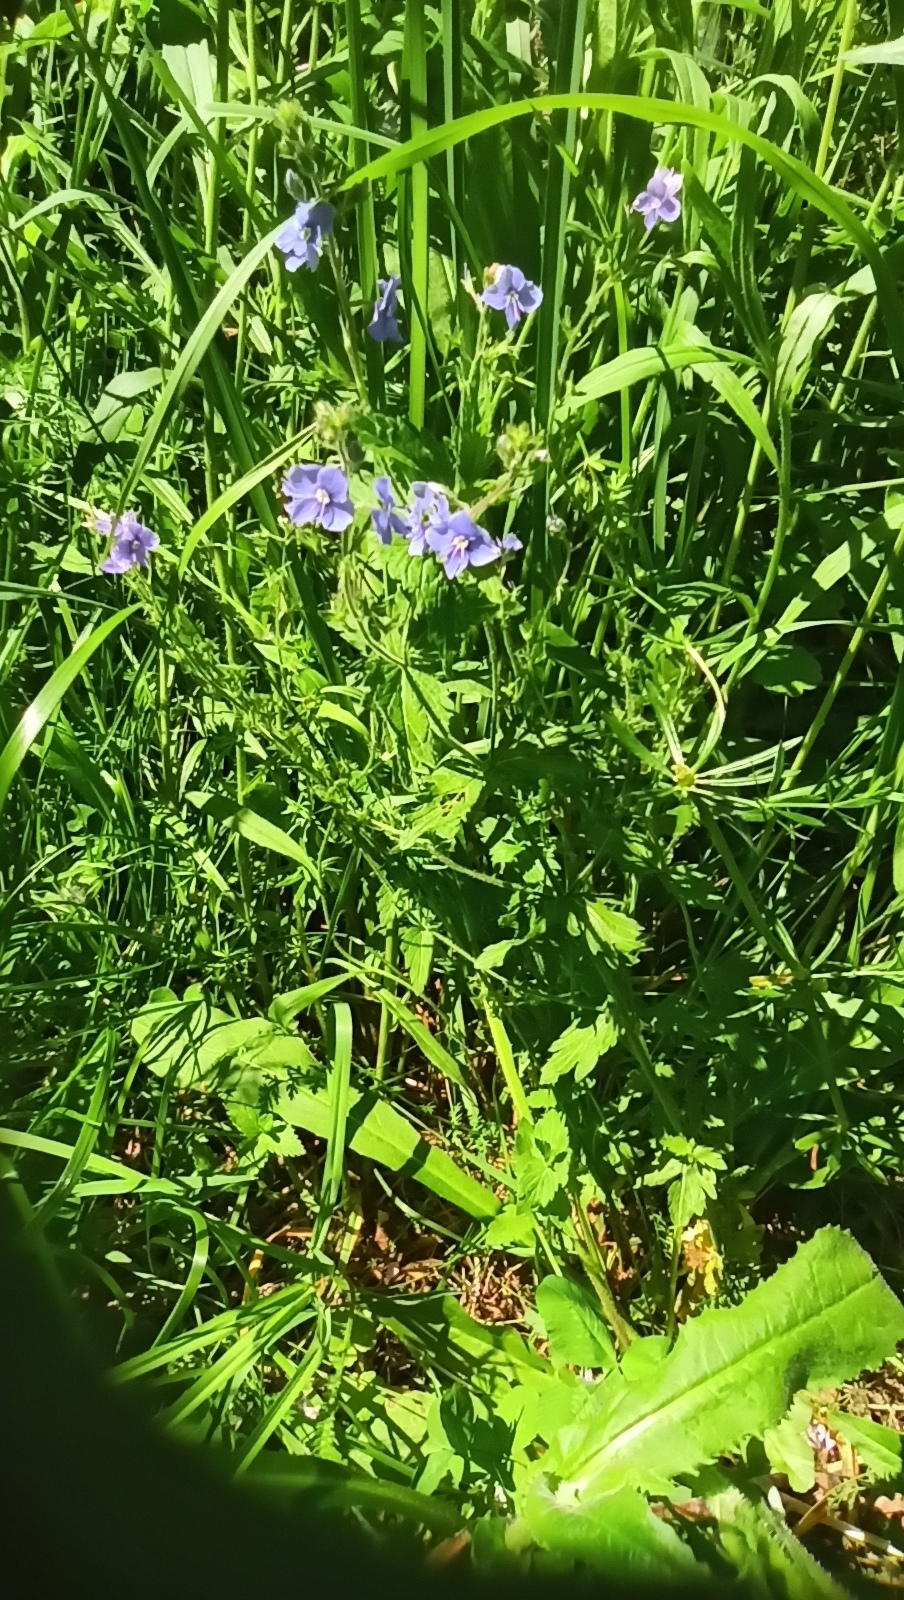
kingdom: Plantae
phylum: Tracheophyta
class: Magnoliopsida
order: Lamiales
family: Plantaginaceae
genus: Veronica
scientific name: Veronica chamaedrys
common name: Germander speedwell
